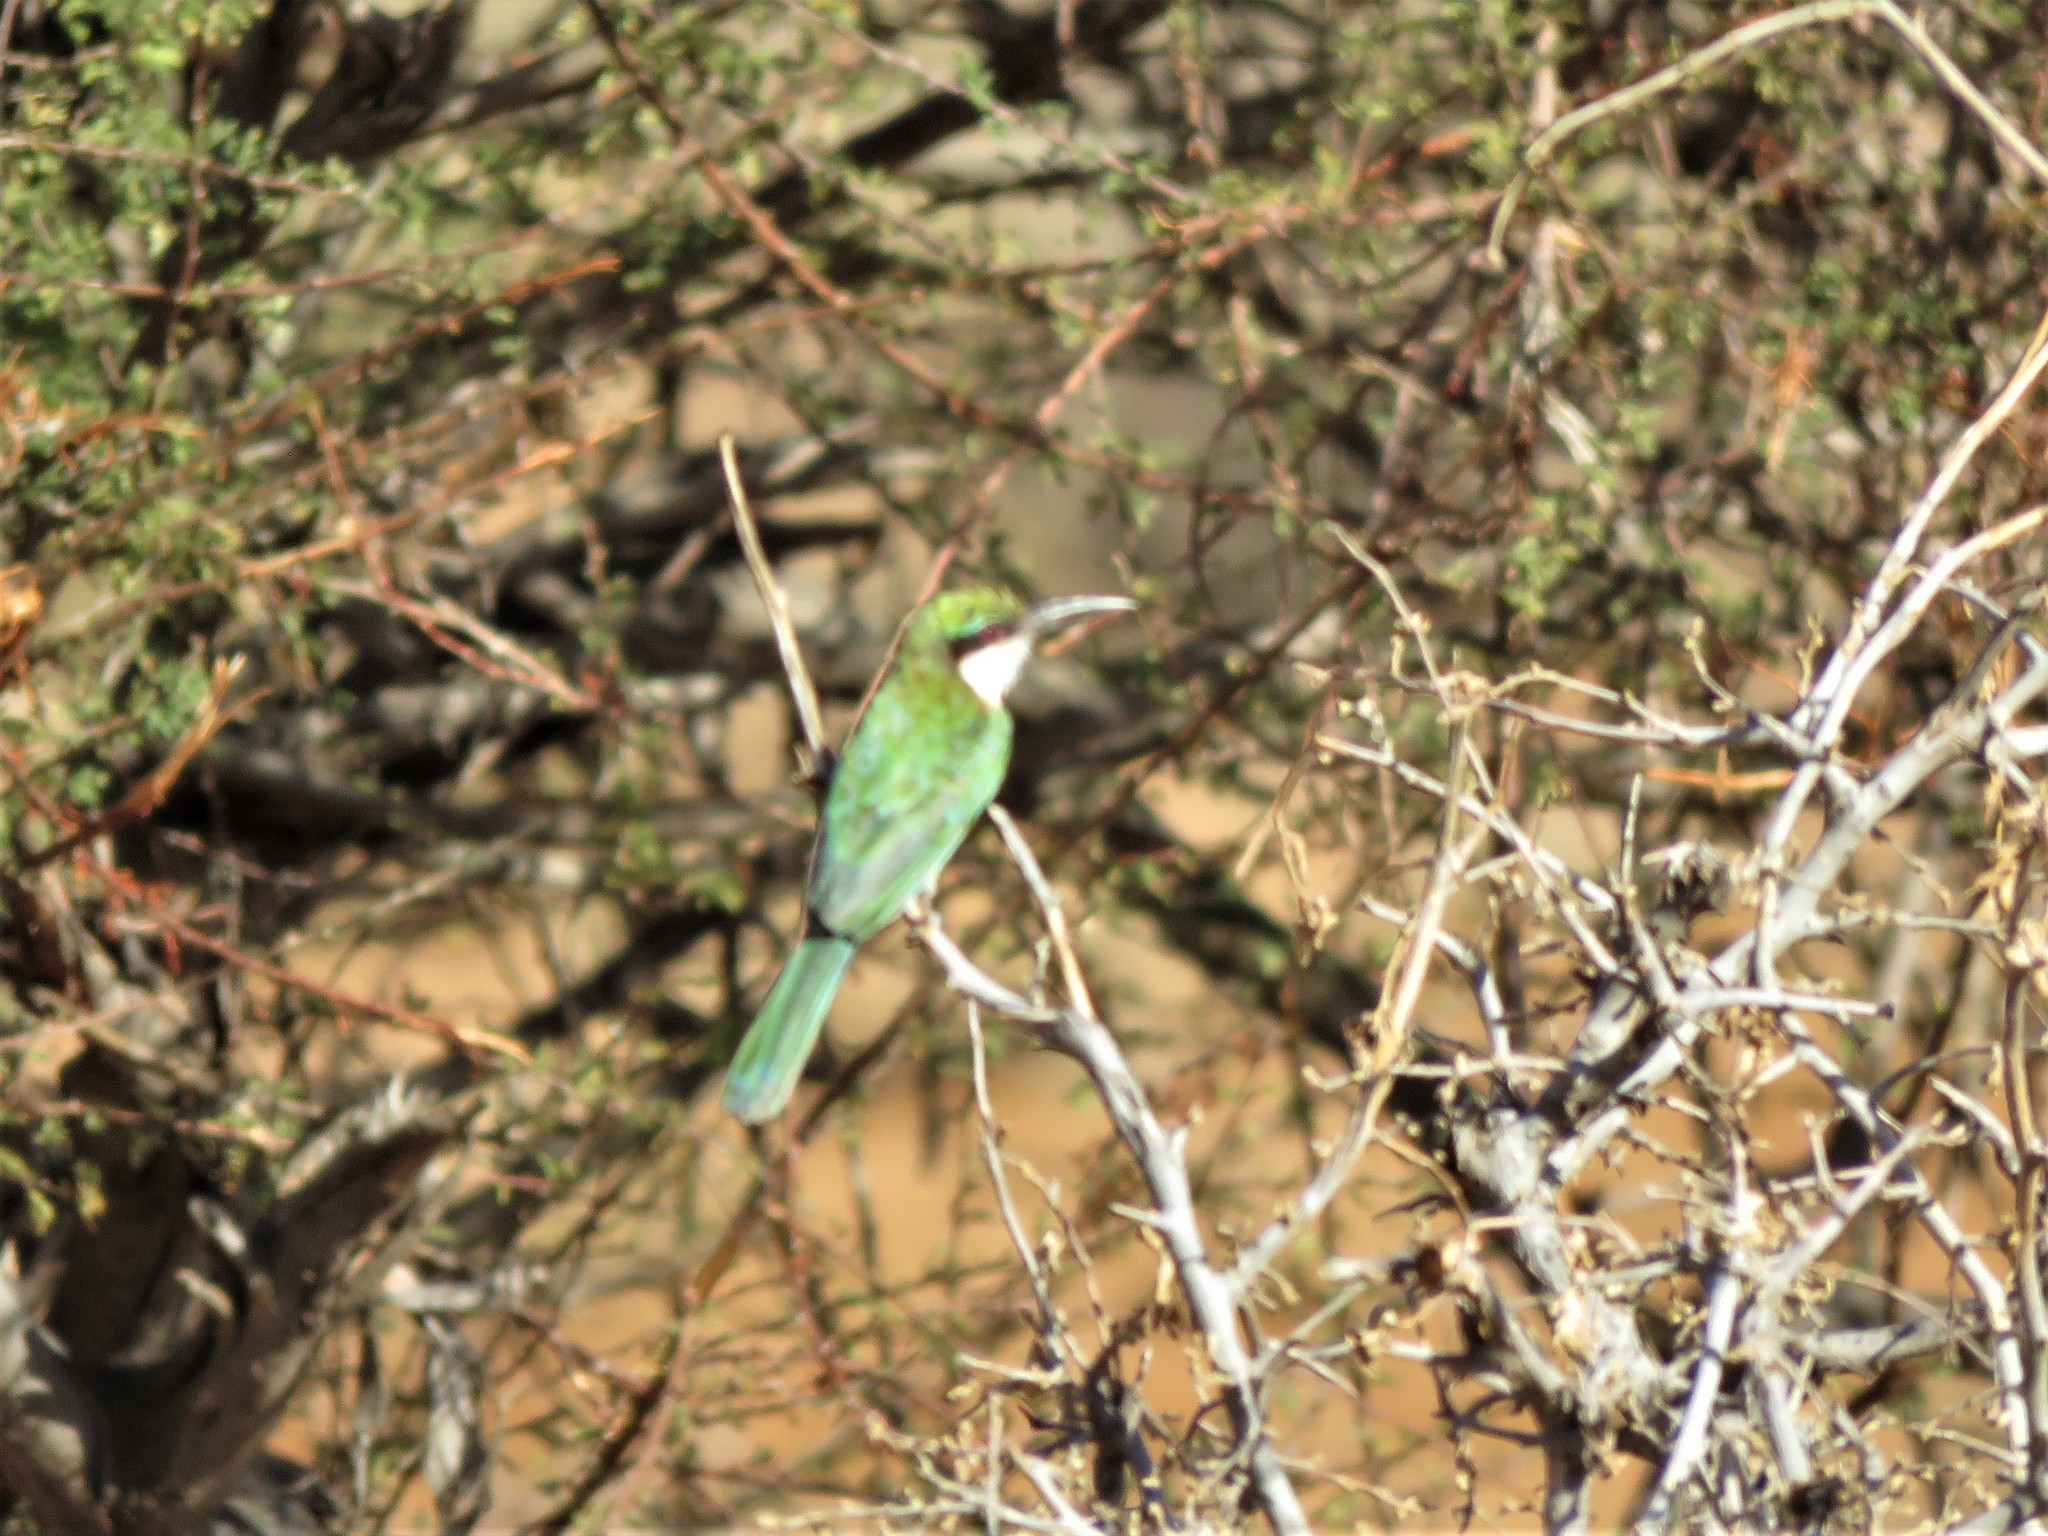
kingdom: Animalia
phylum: Chordata
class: Aves
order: Coraciiformes
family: Meropidae
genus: Merops
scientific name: Merops revoilii
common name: Somali bee-eater
